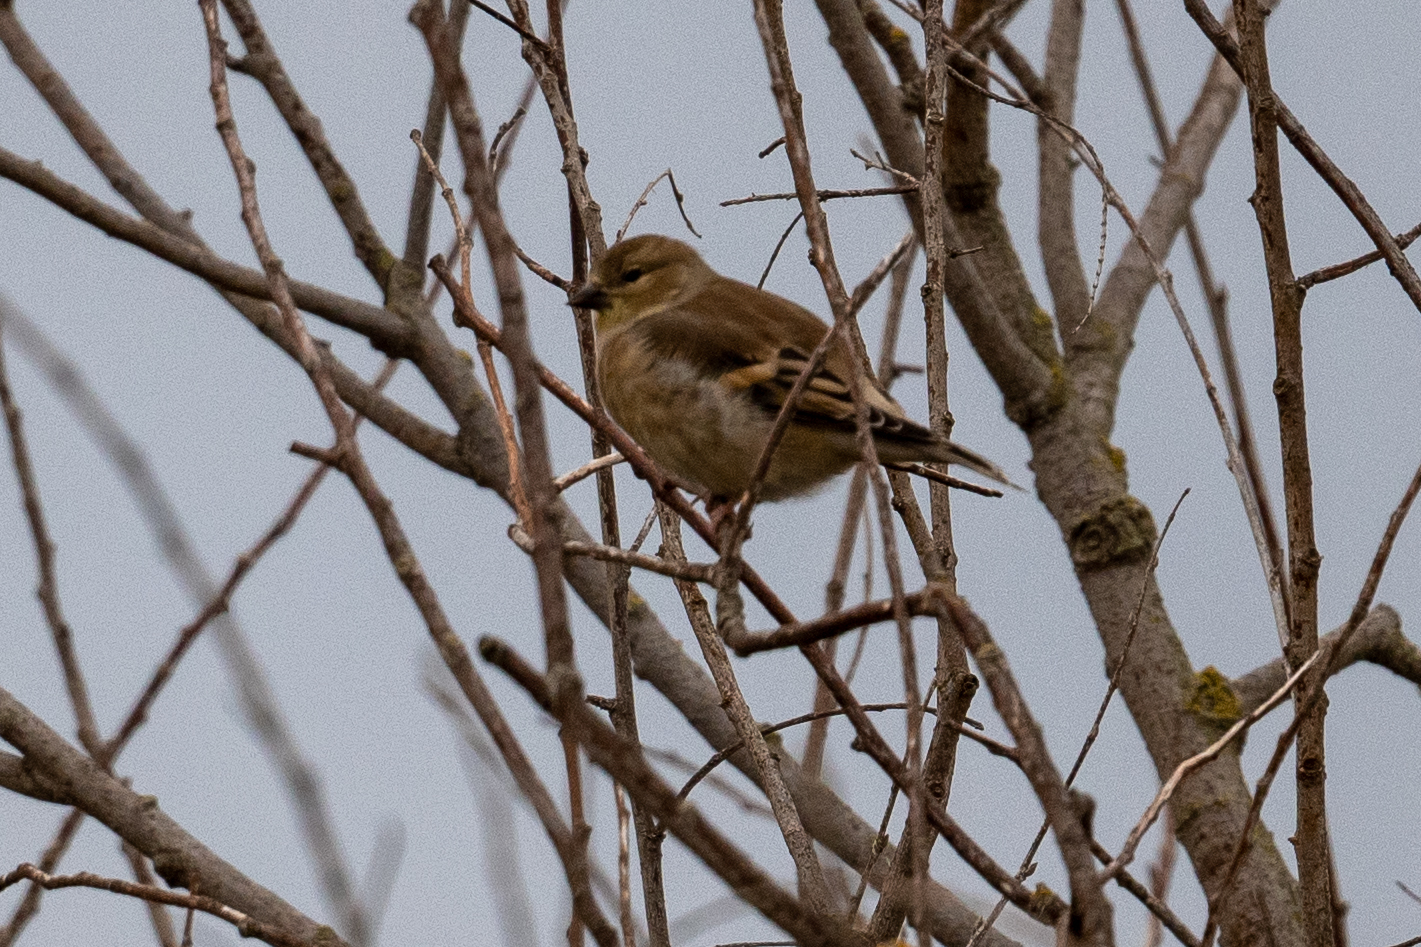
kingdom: Animalia
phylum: Chordata
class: Aves
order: Passeriformes
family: Fringillidae
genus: Spinus
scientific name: Spinus tristis
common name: American goldfinch
